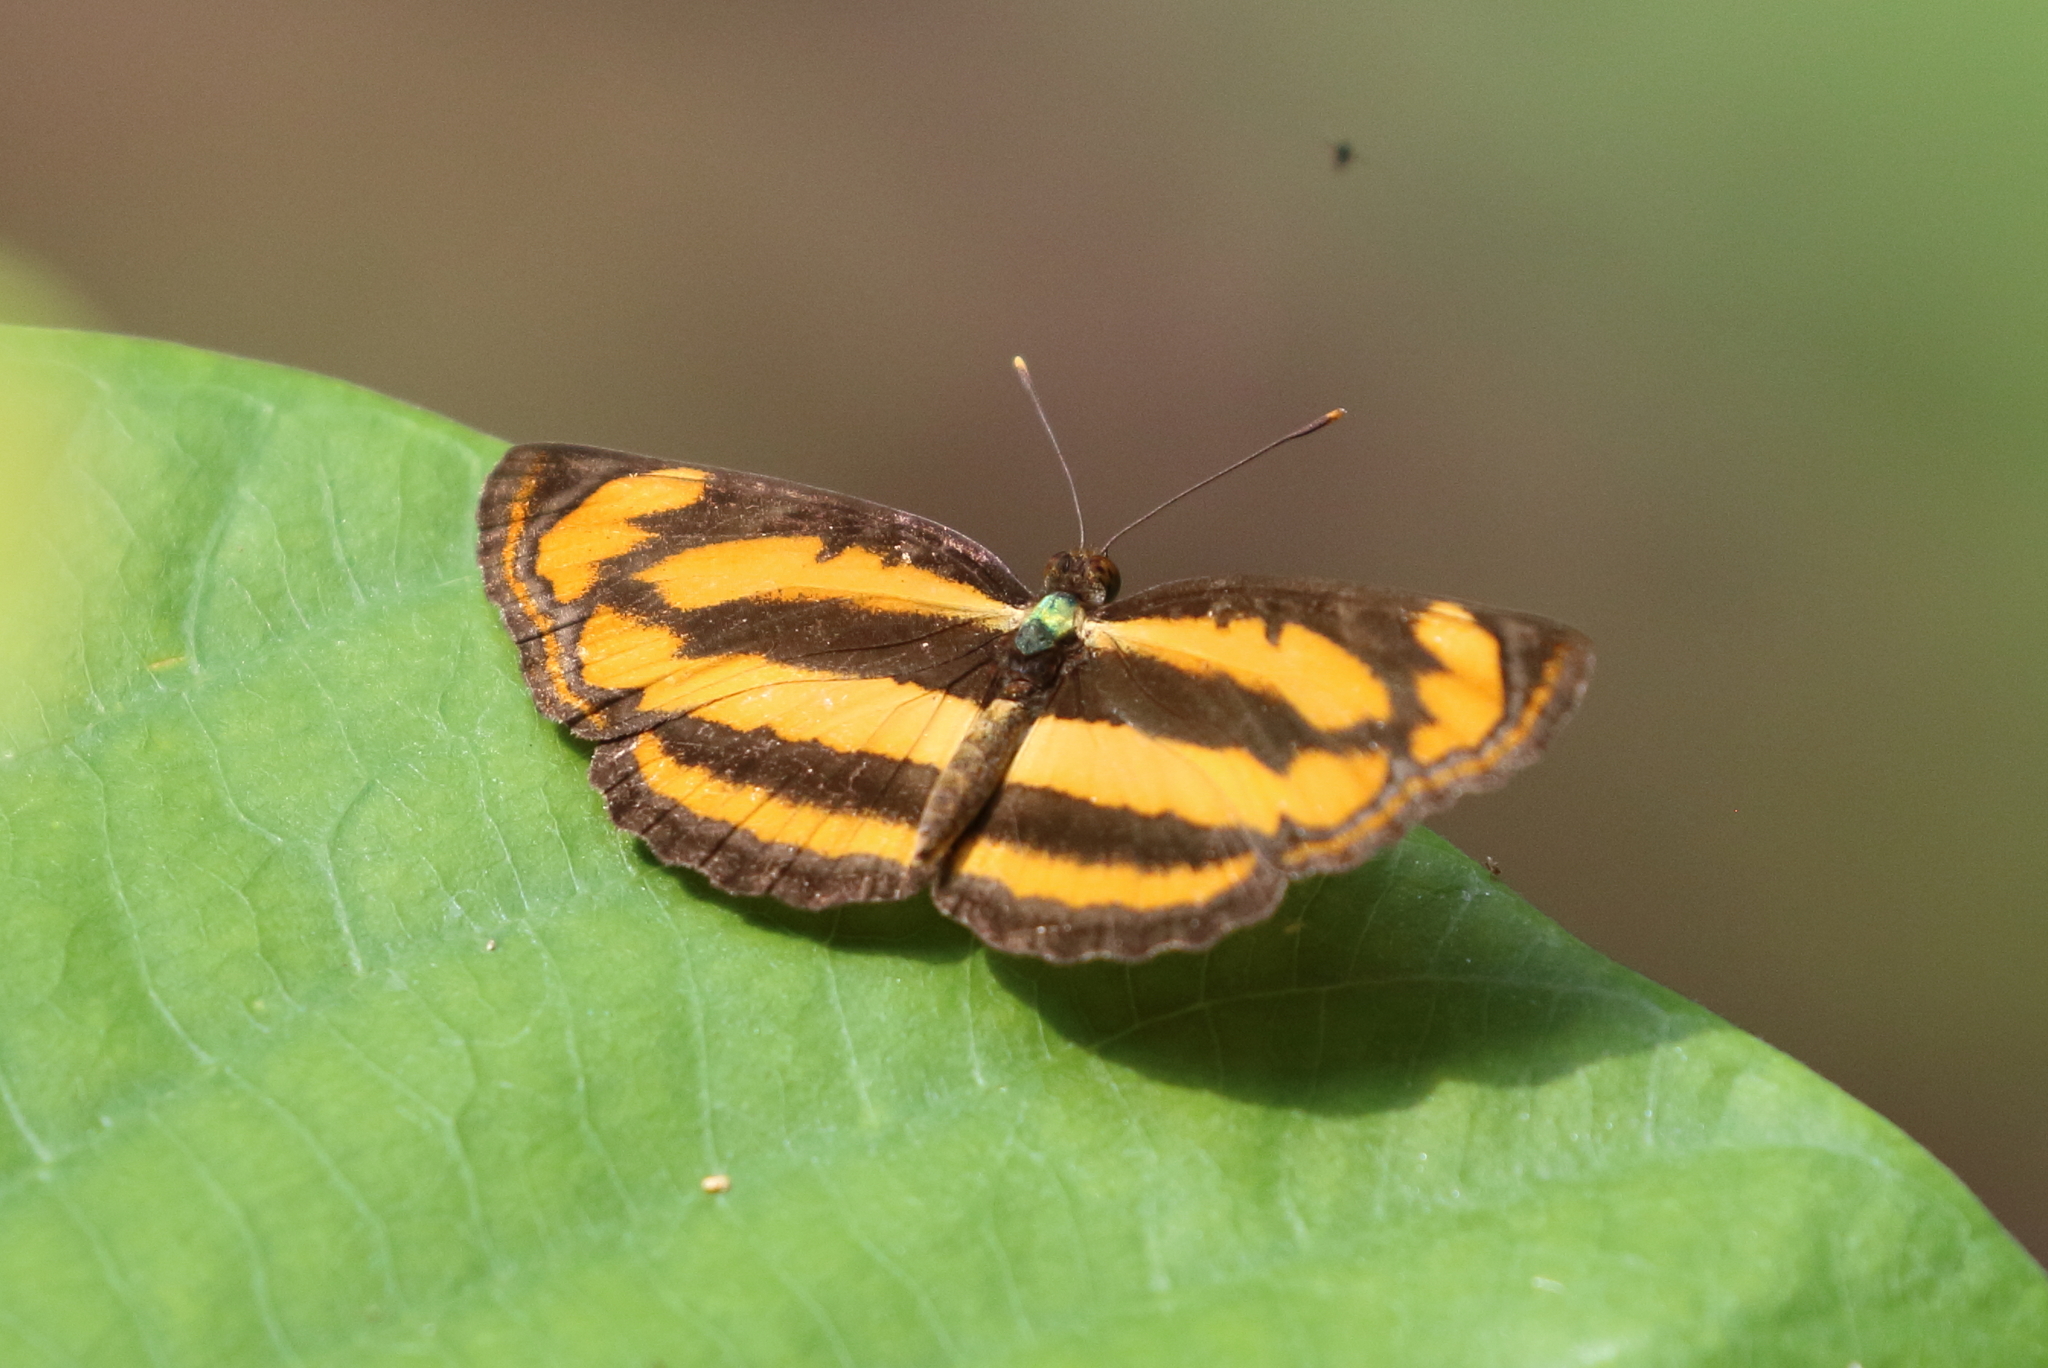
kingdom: Animalia
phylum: Arthropoda
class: Insecta
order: Lepidoptera
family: Nymphalidae
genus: Pantoporia
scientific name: Pantoporia hordonia
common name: Common lascar
